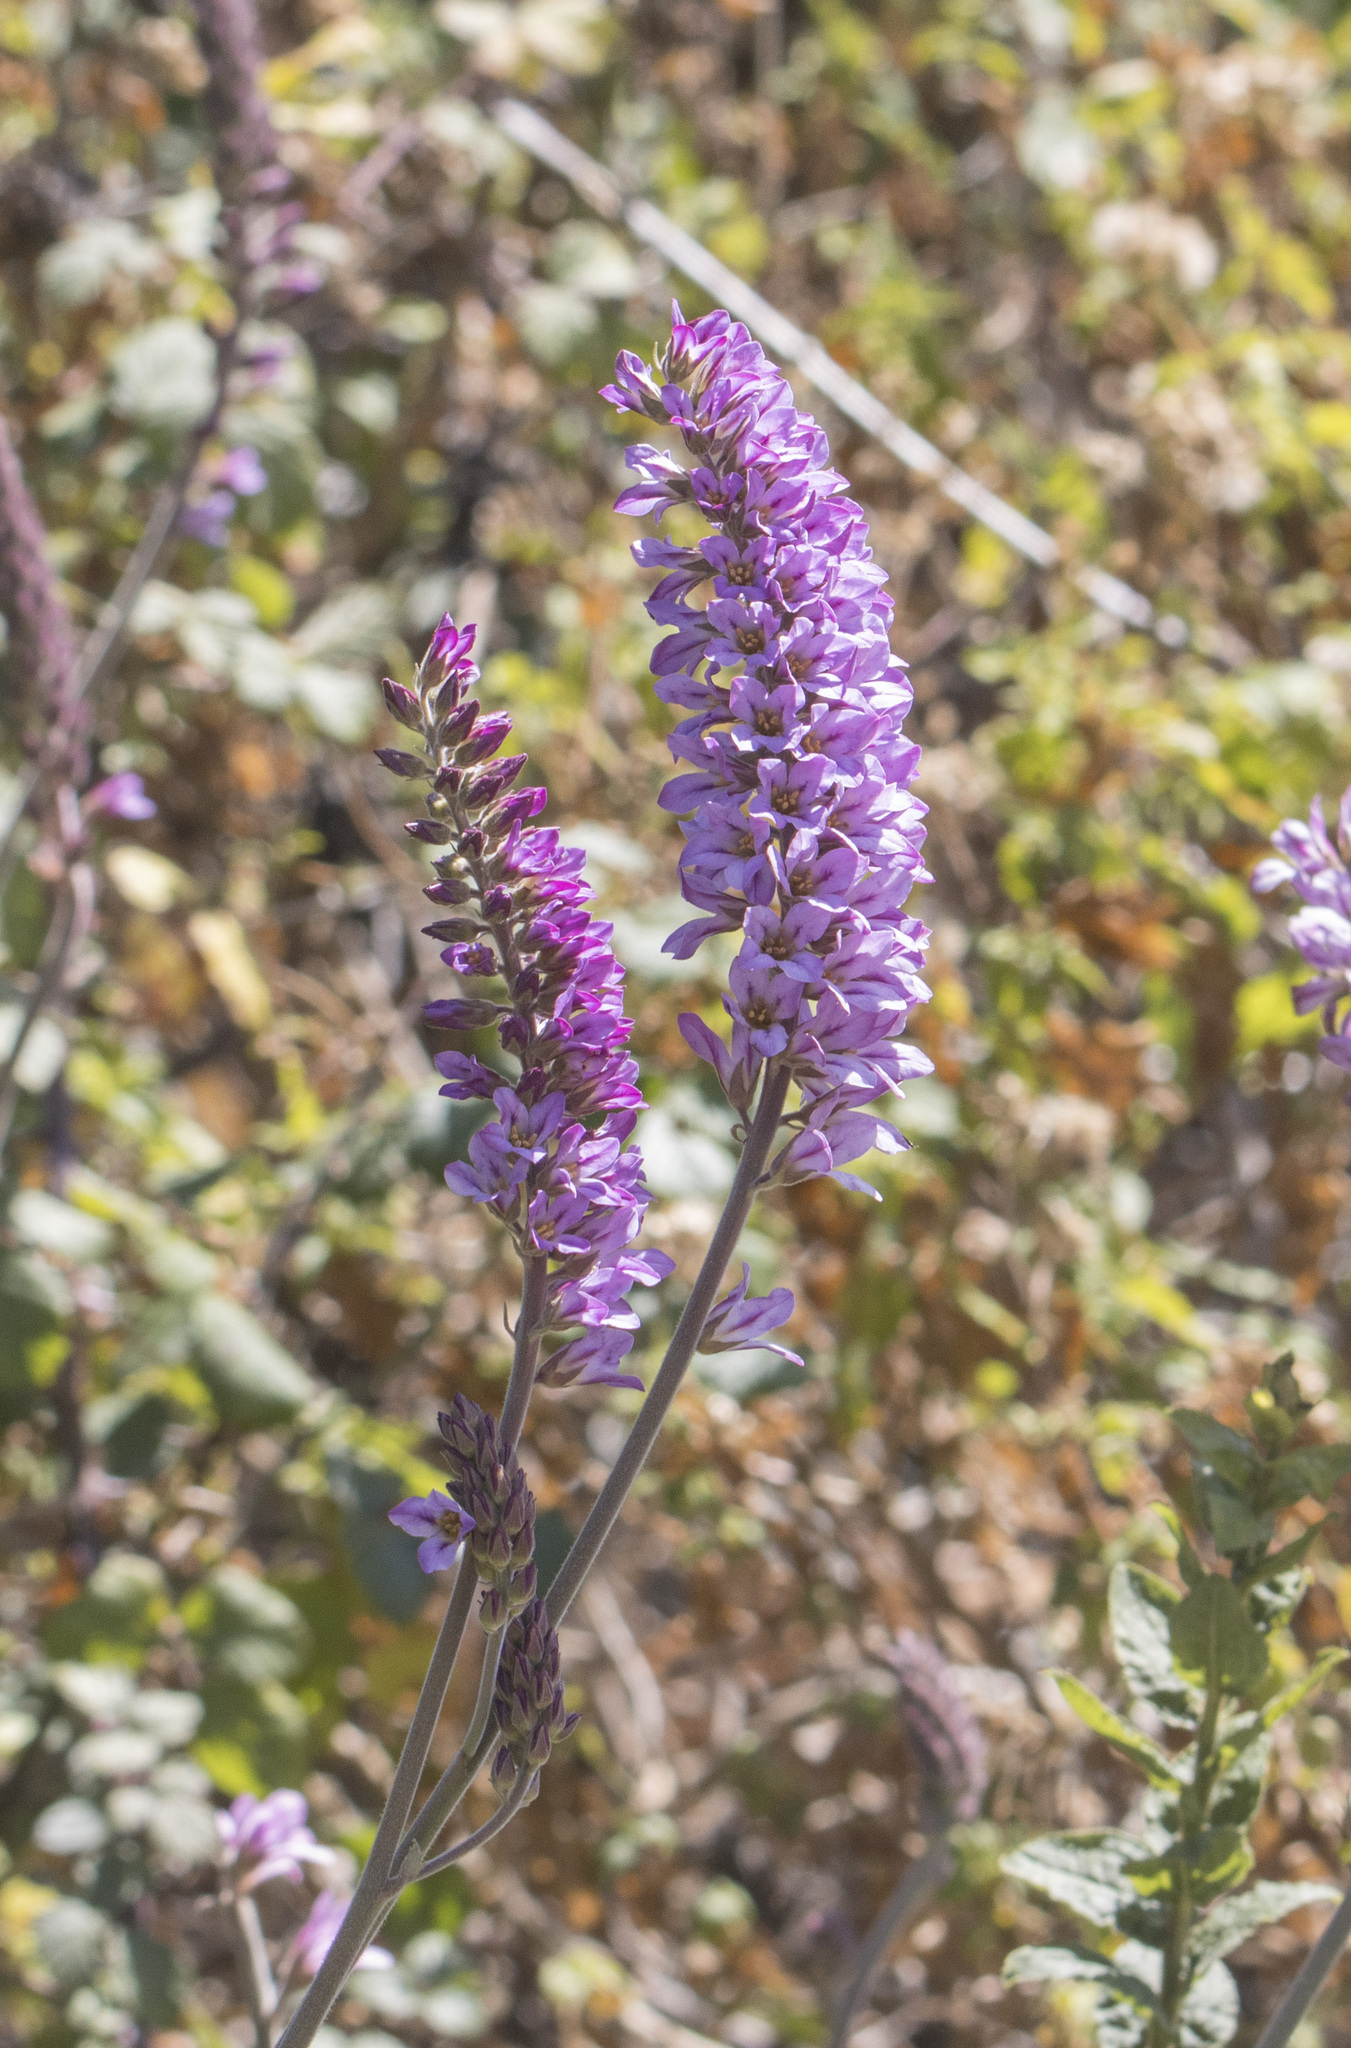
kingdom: Plantae
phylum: Tracheophyta
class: Magnoliopsida
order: Geraniales
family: Francoaceae
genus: Francoa
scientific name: Francoa appendiculata
